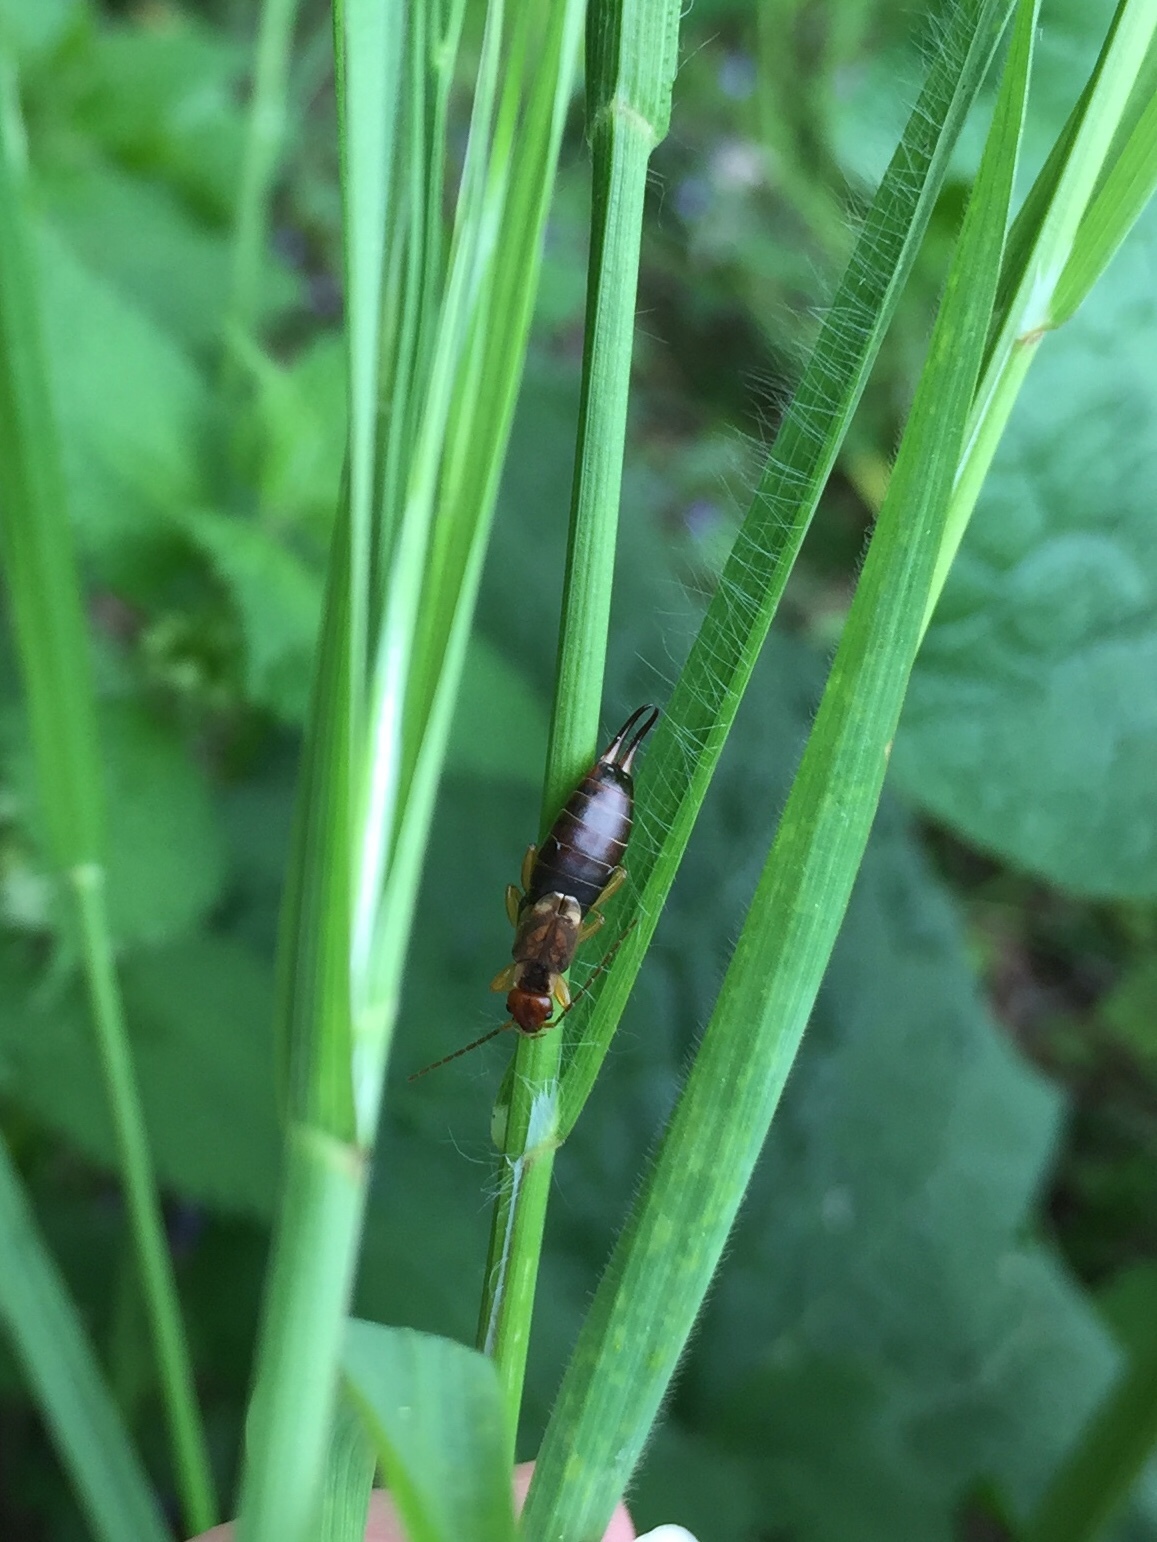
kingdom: Animalia
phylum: Arthropoda
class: Insecta
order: Dermaptera
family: Forficulidae
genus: Forficula
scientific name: Forficula
